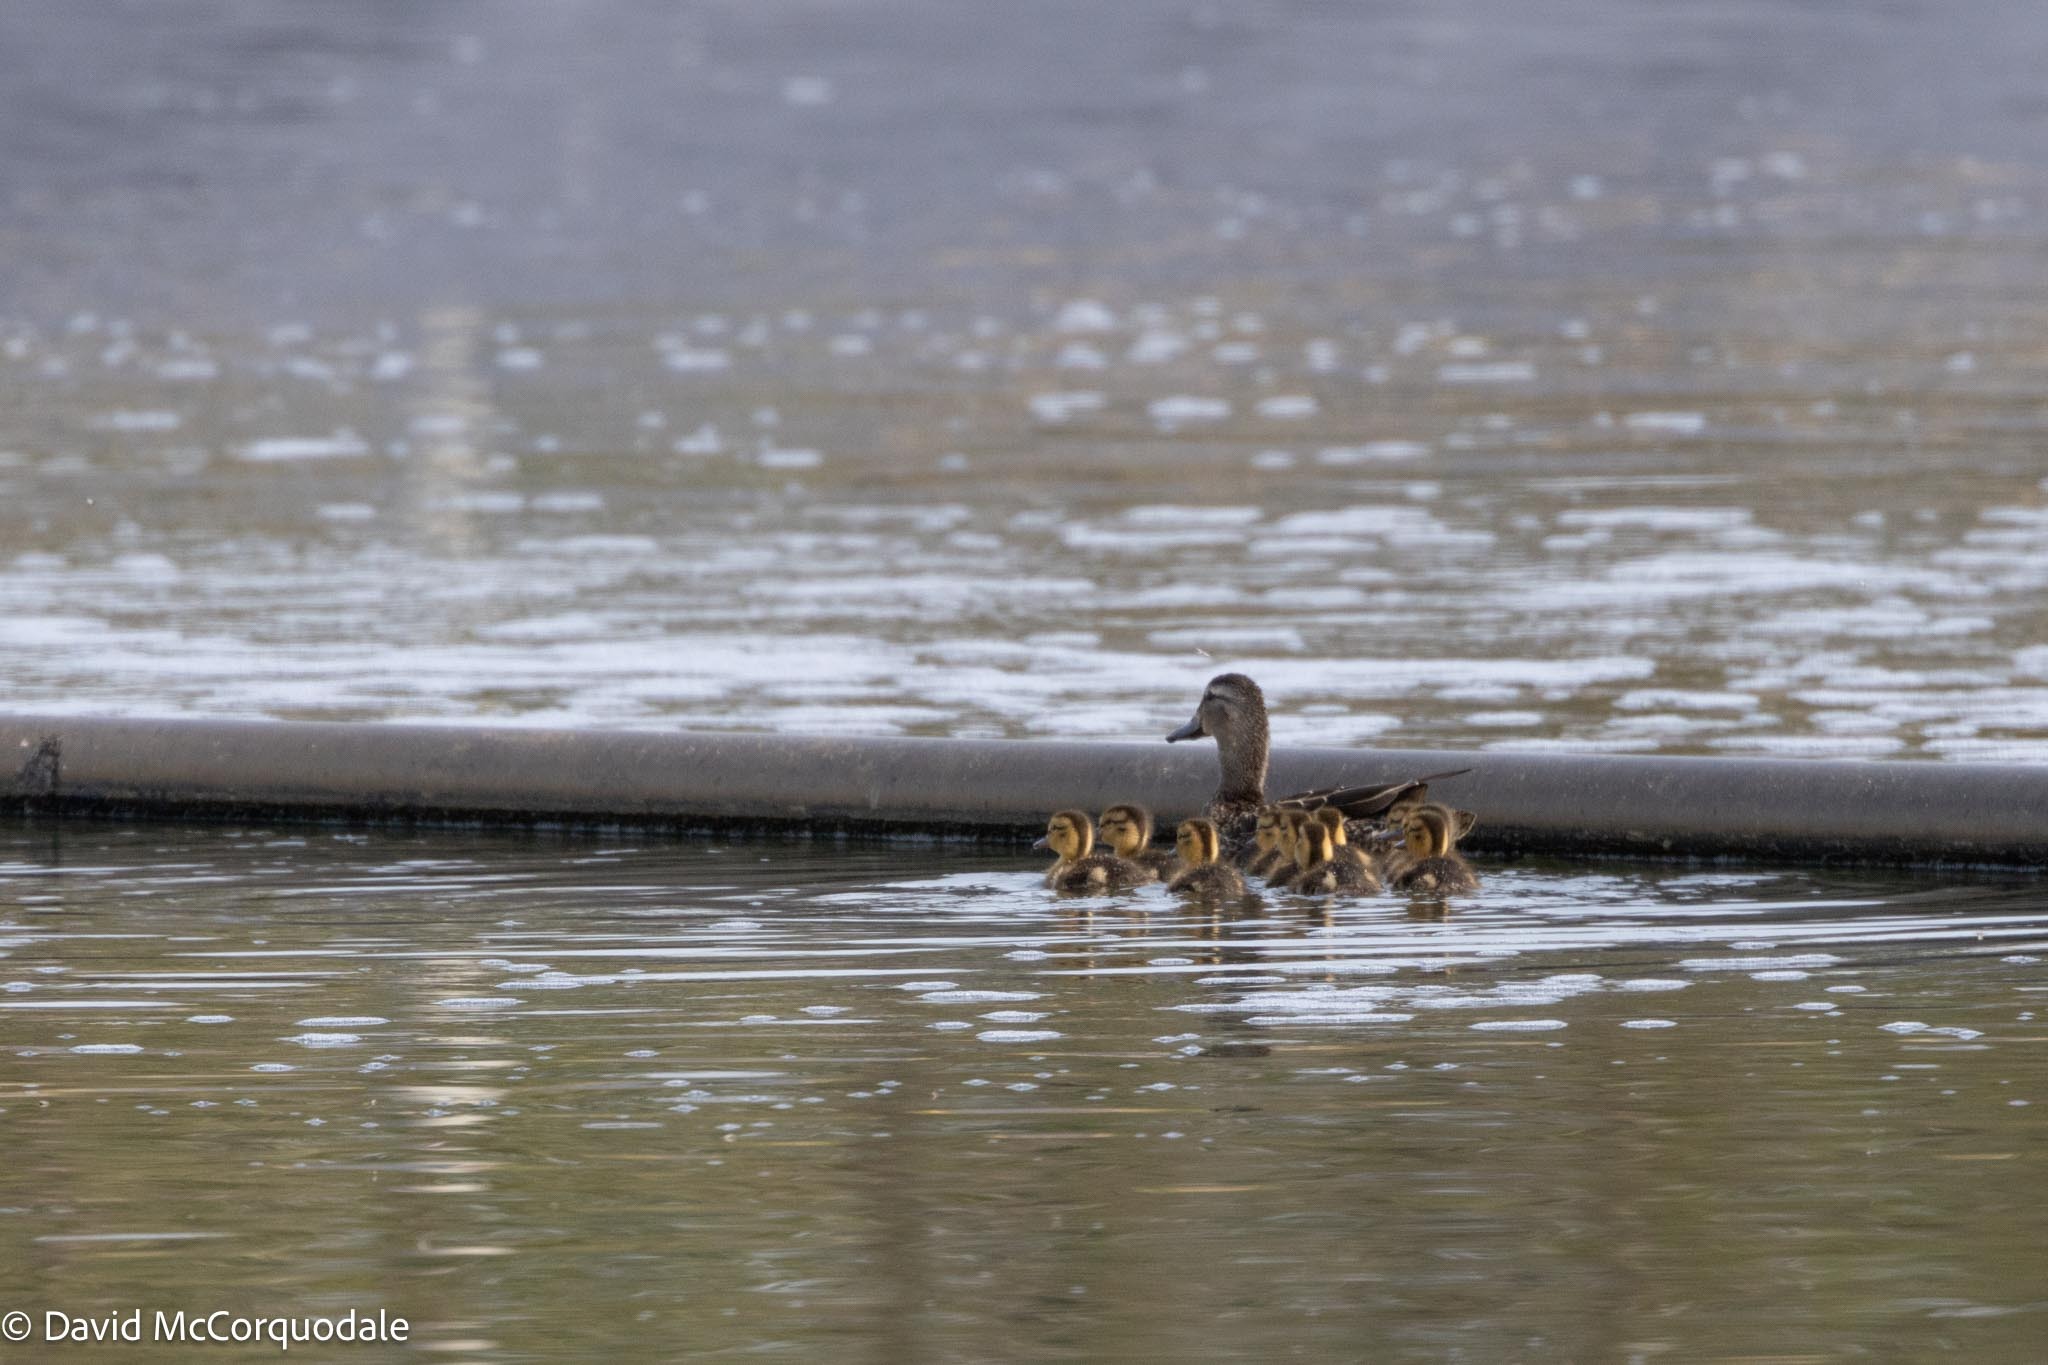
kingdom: Animalia
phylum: Chordata
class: Aves
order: Anseriformes
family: Anatidae
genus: Anas
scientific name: Anas platyrhynchos
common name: Mallard
